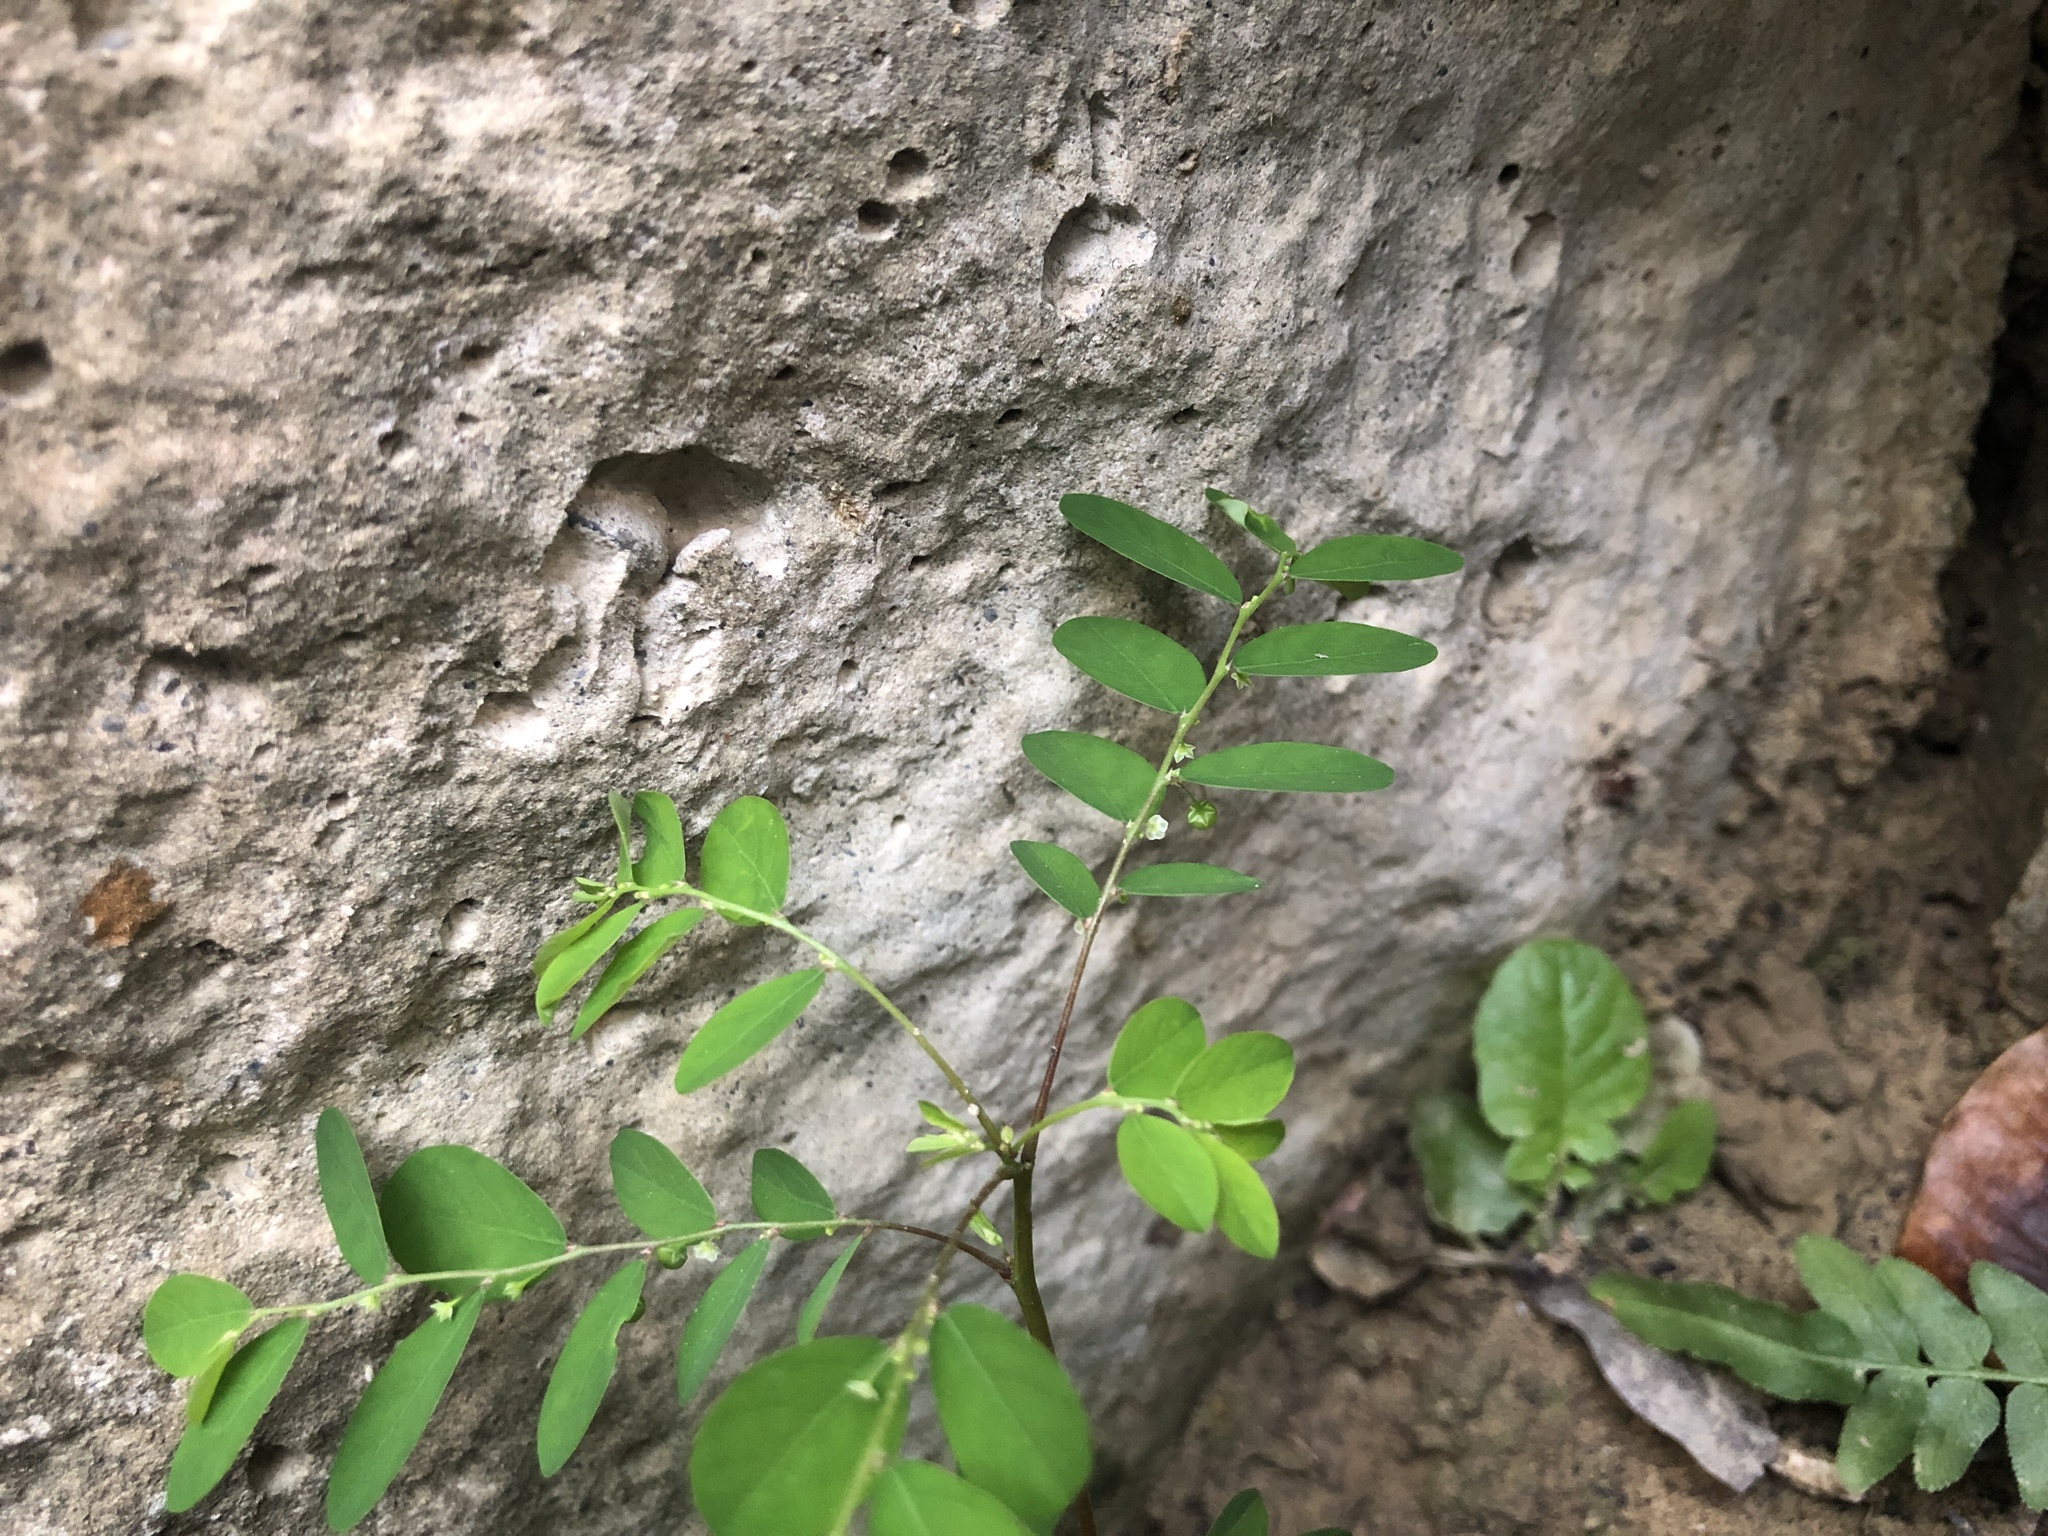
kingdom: Plantae
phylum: Tracheophyta
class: Magnoliopsida
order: Malpighiales
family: Phyllanthaceae
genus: Phyllanthus
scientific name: Phyllanthus tenellus
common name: Mascarene island leaf-flower
